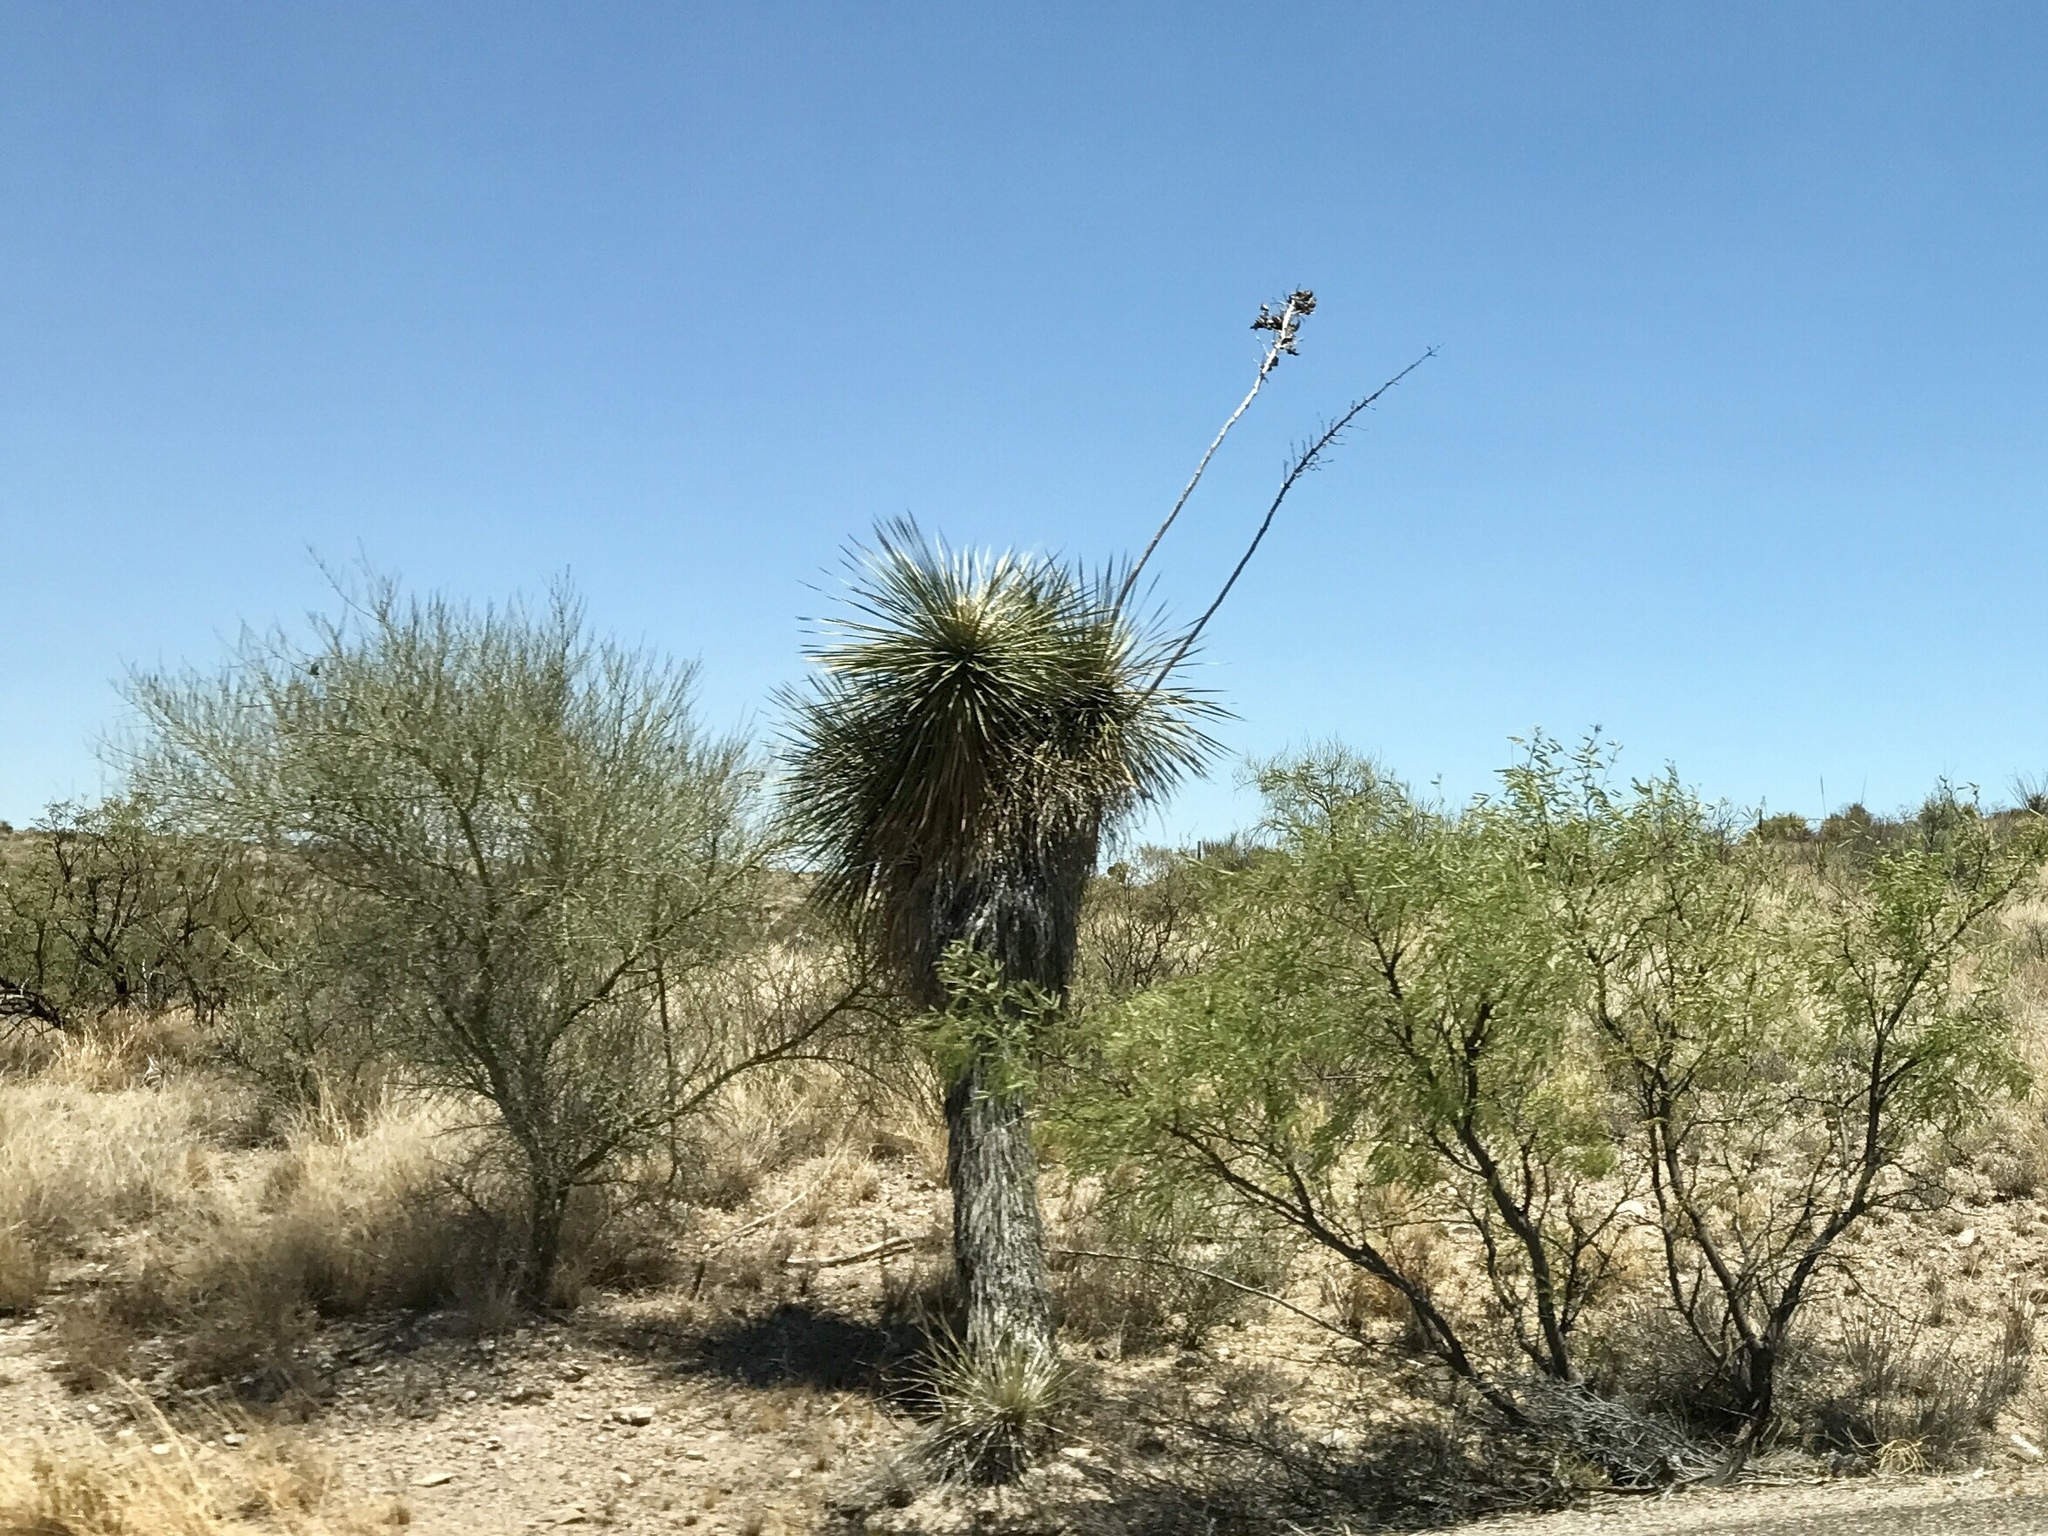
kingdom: Plantae
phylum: Tracheophyta
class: Liliopsida
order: Asparagales
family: Asparagaceae
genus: Yucca
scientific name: Yucca elata
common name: Palmella
